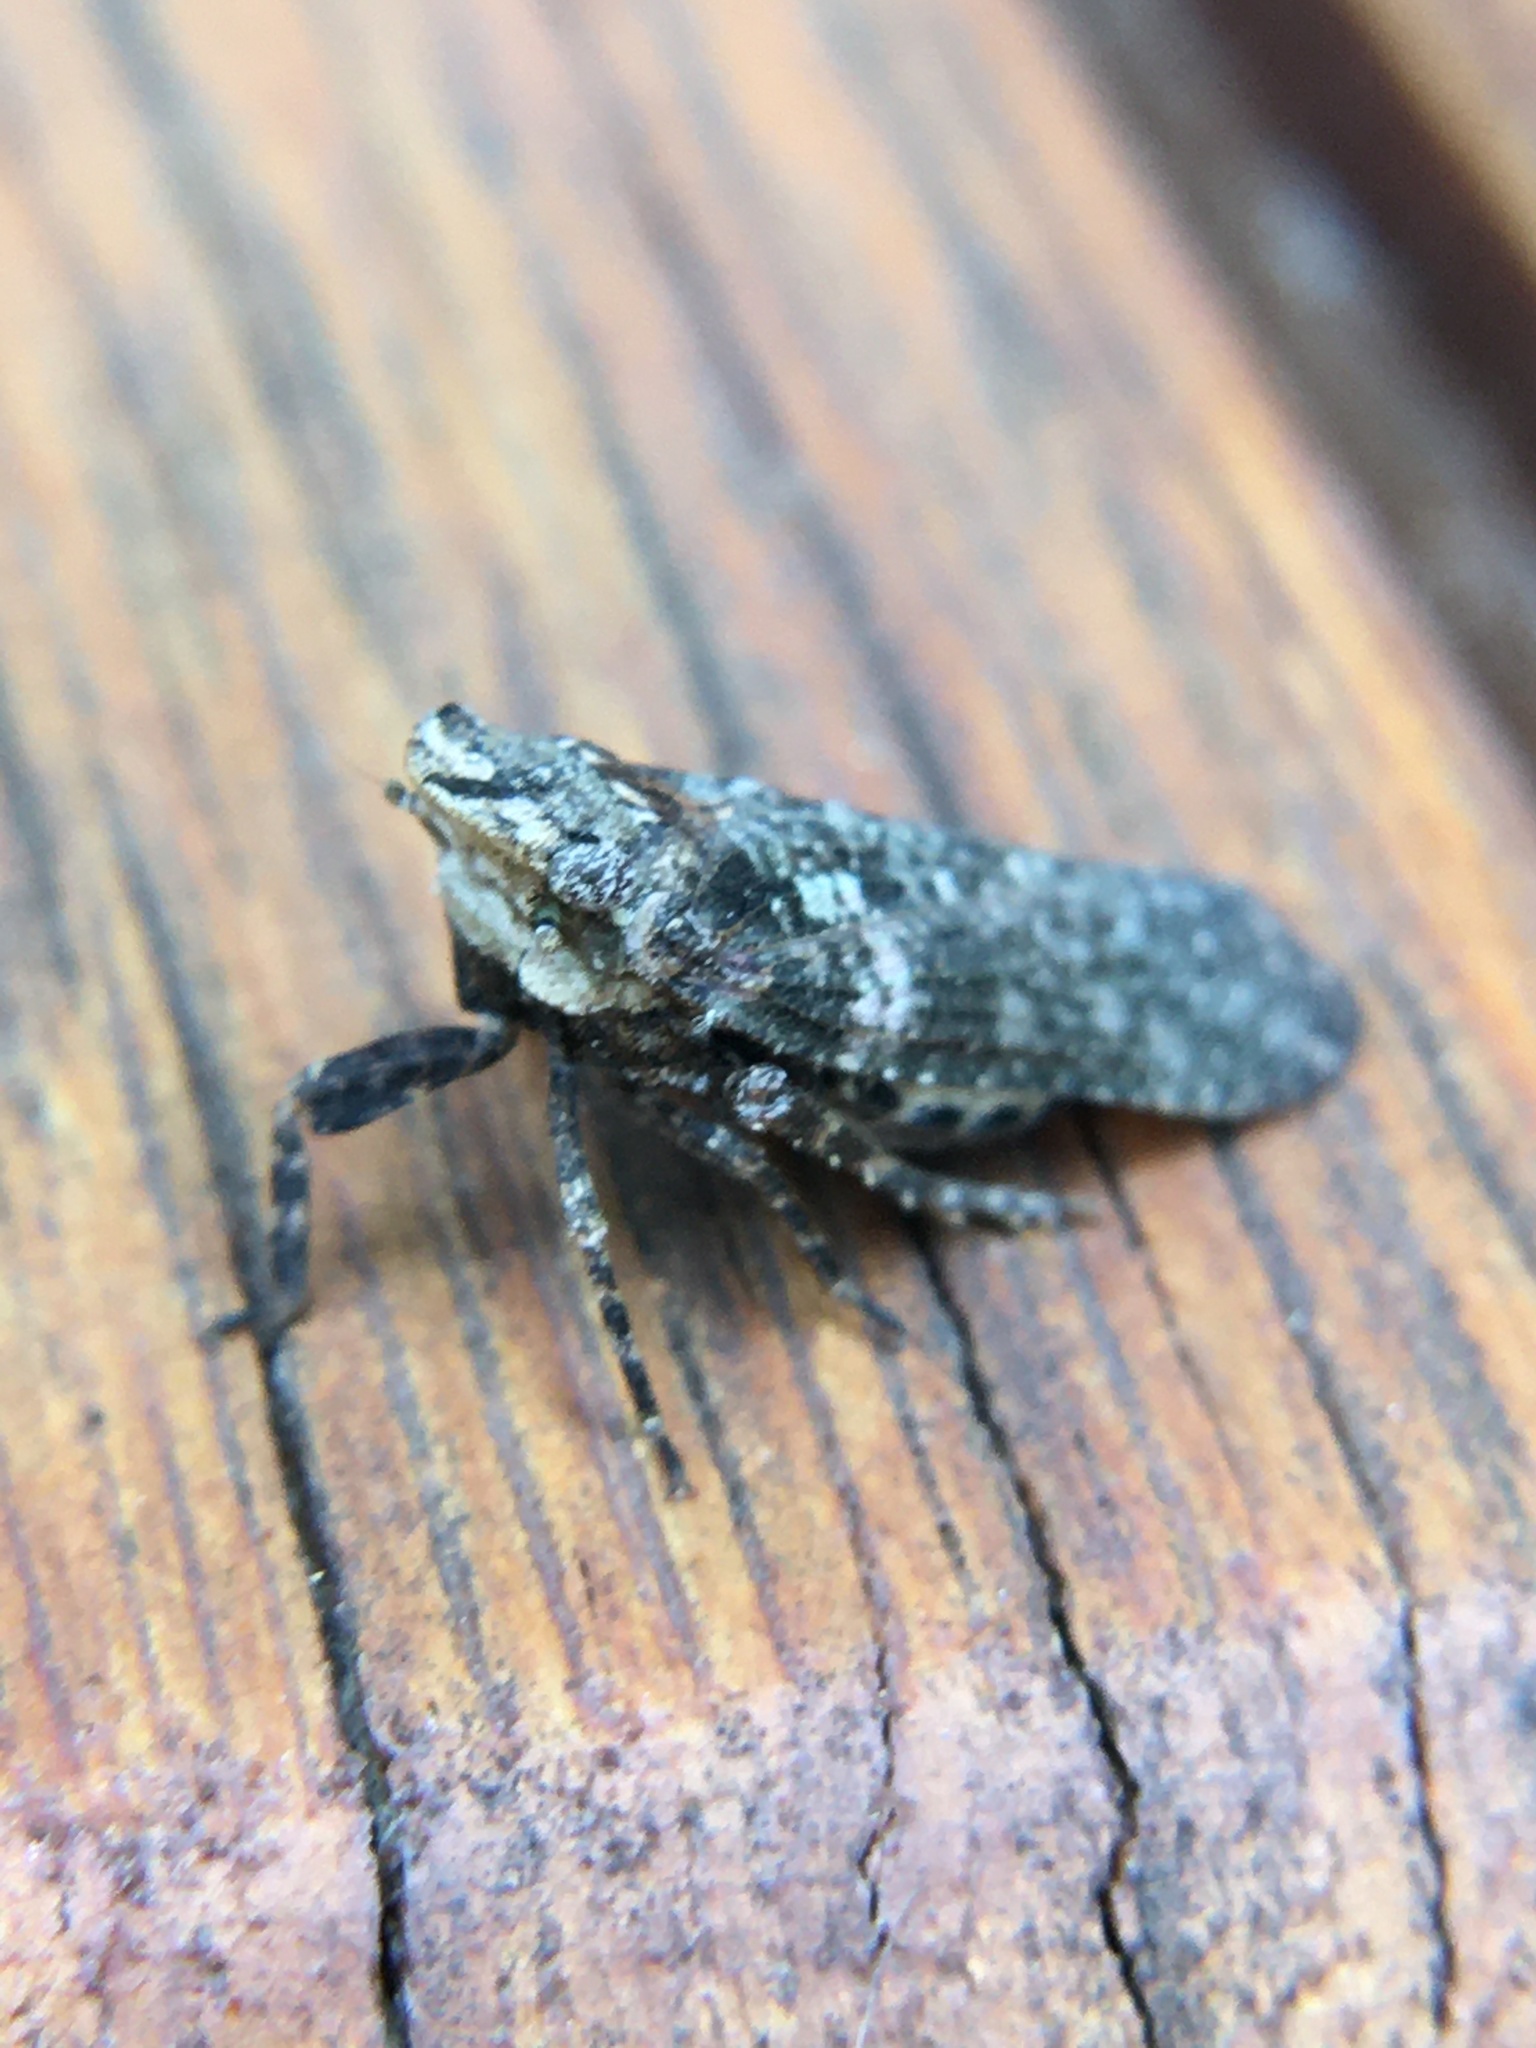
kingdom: Animalia
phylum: Arthropoda
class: Insecta
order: Hemiptera
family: Fulgoridae
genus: Cyrpoptus
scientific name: Cyrpoptus vanduzeei
